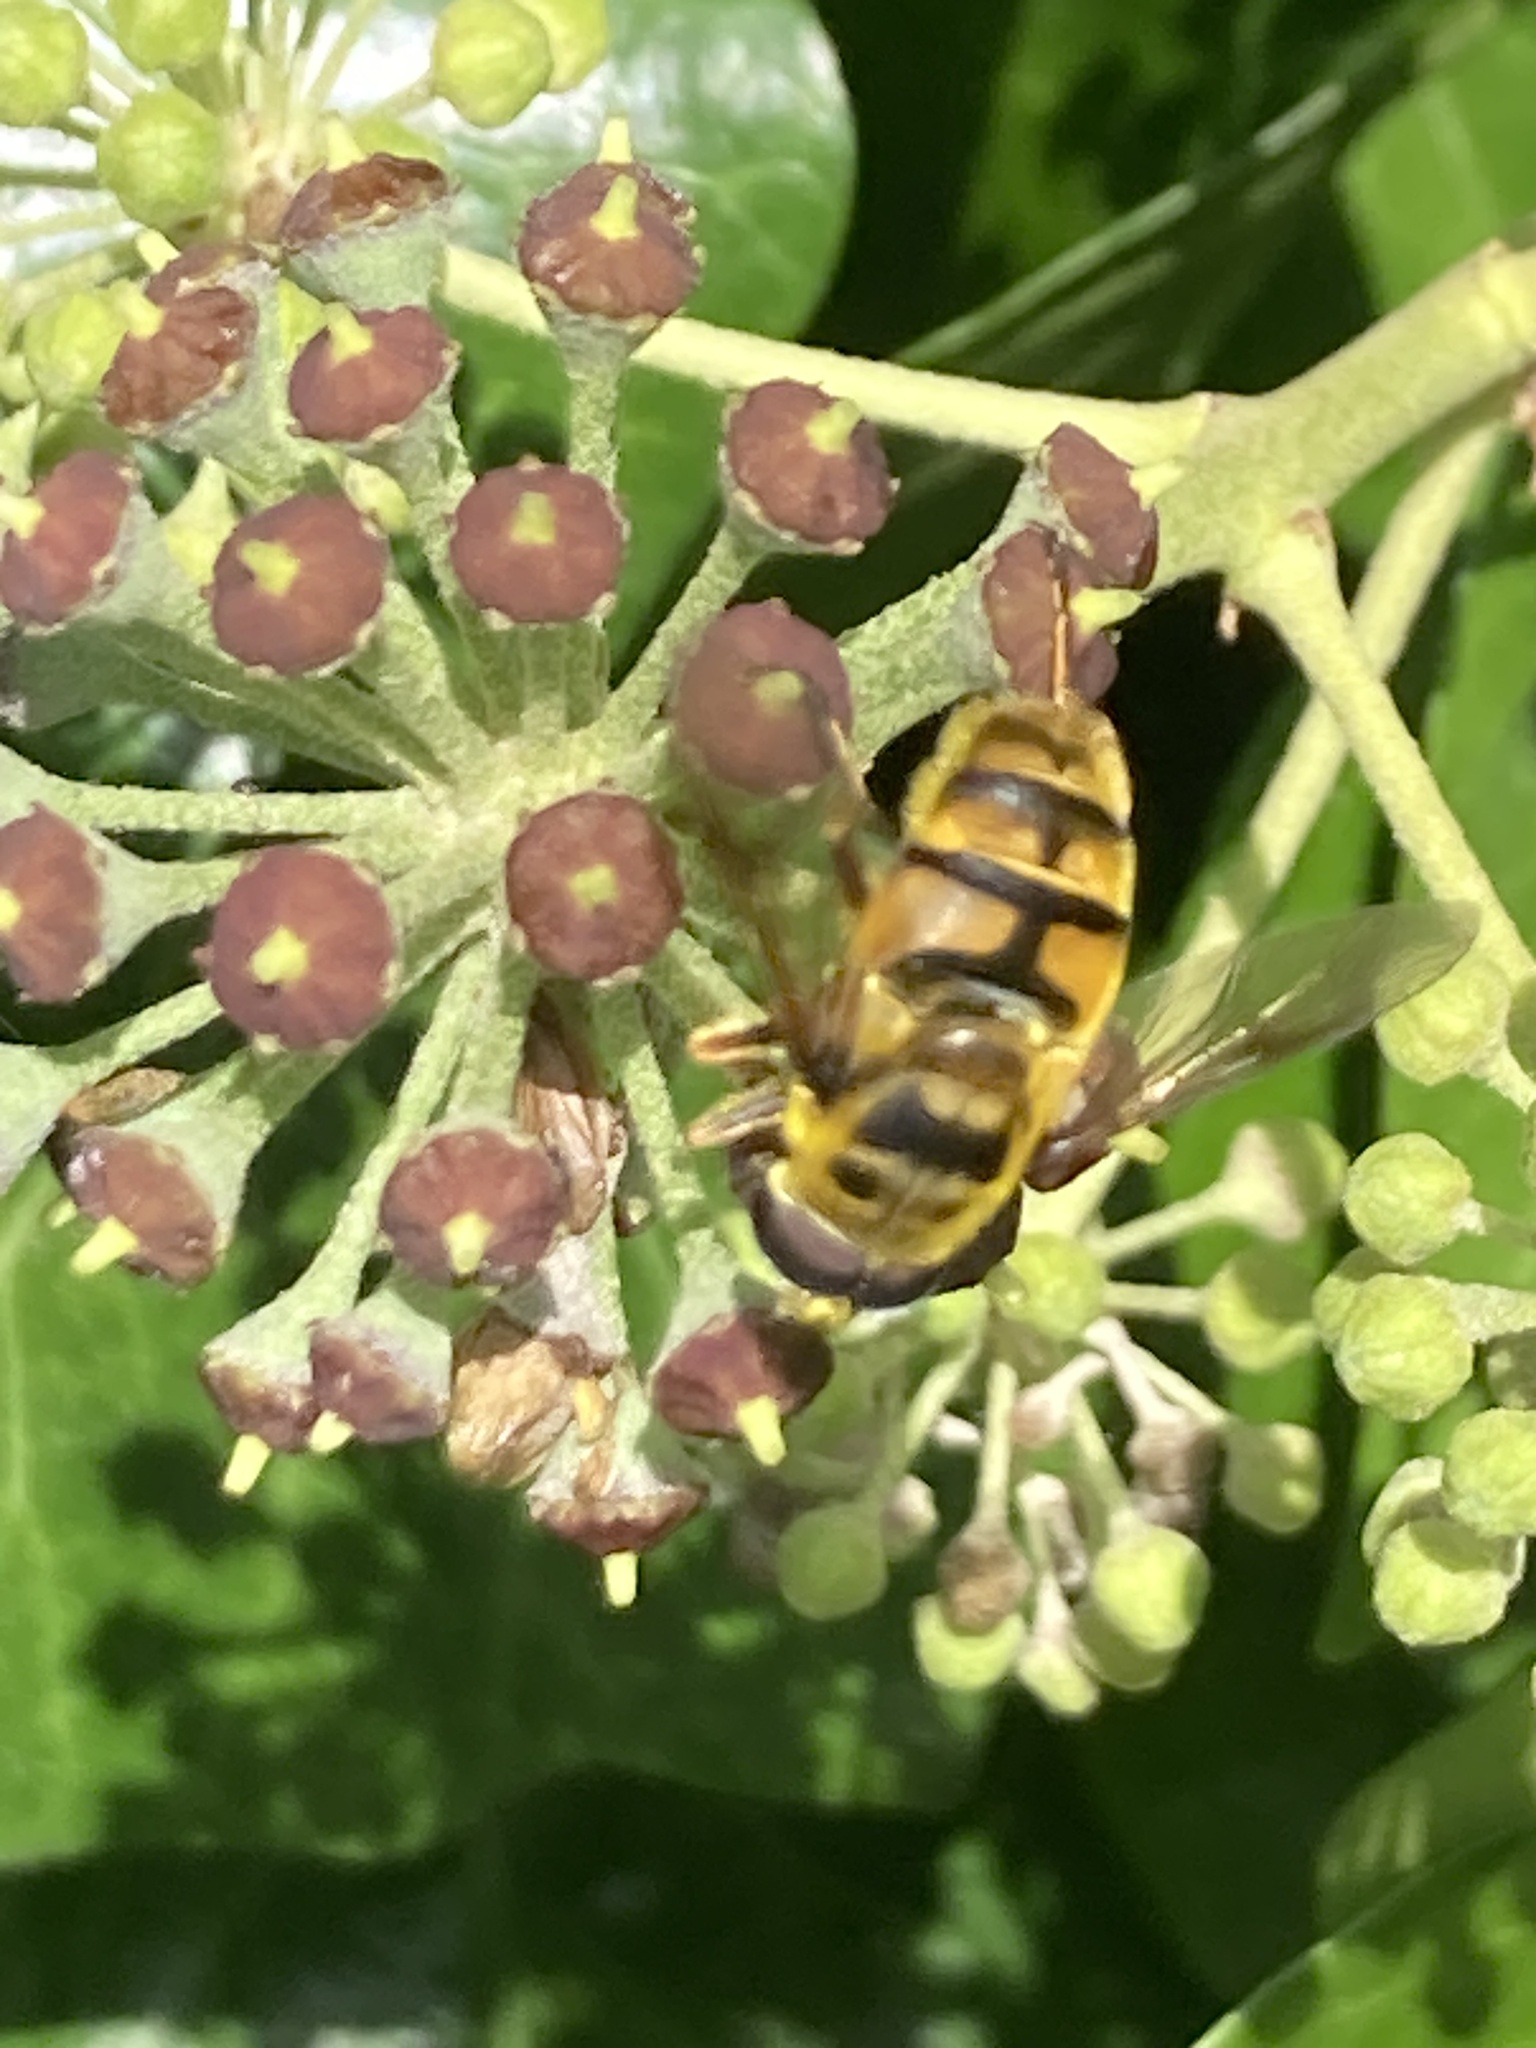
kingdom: Animalia
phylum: Arthropoda
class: Insecta
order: Diptera
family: Syrphidae
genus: Myathropa
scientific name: Myathropa florea
